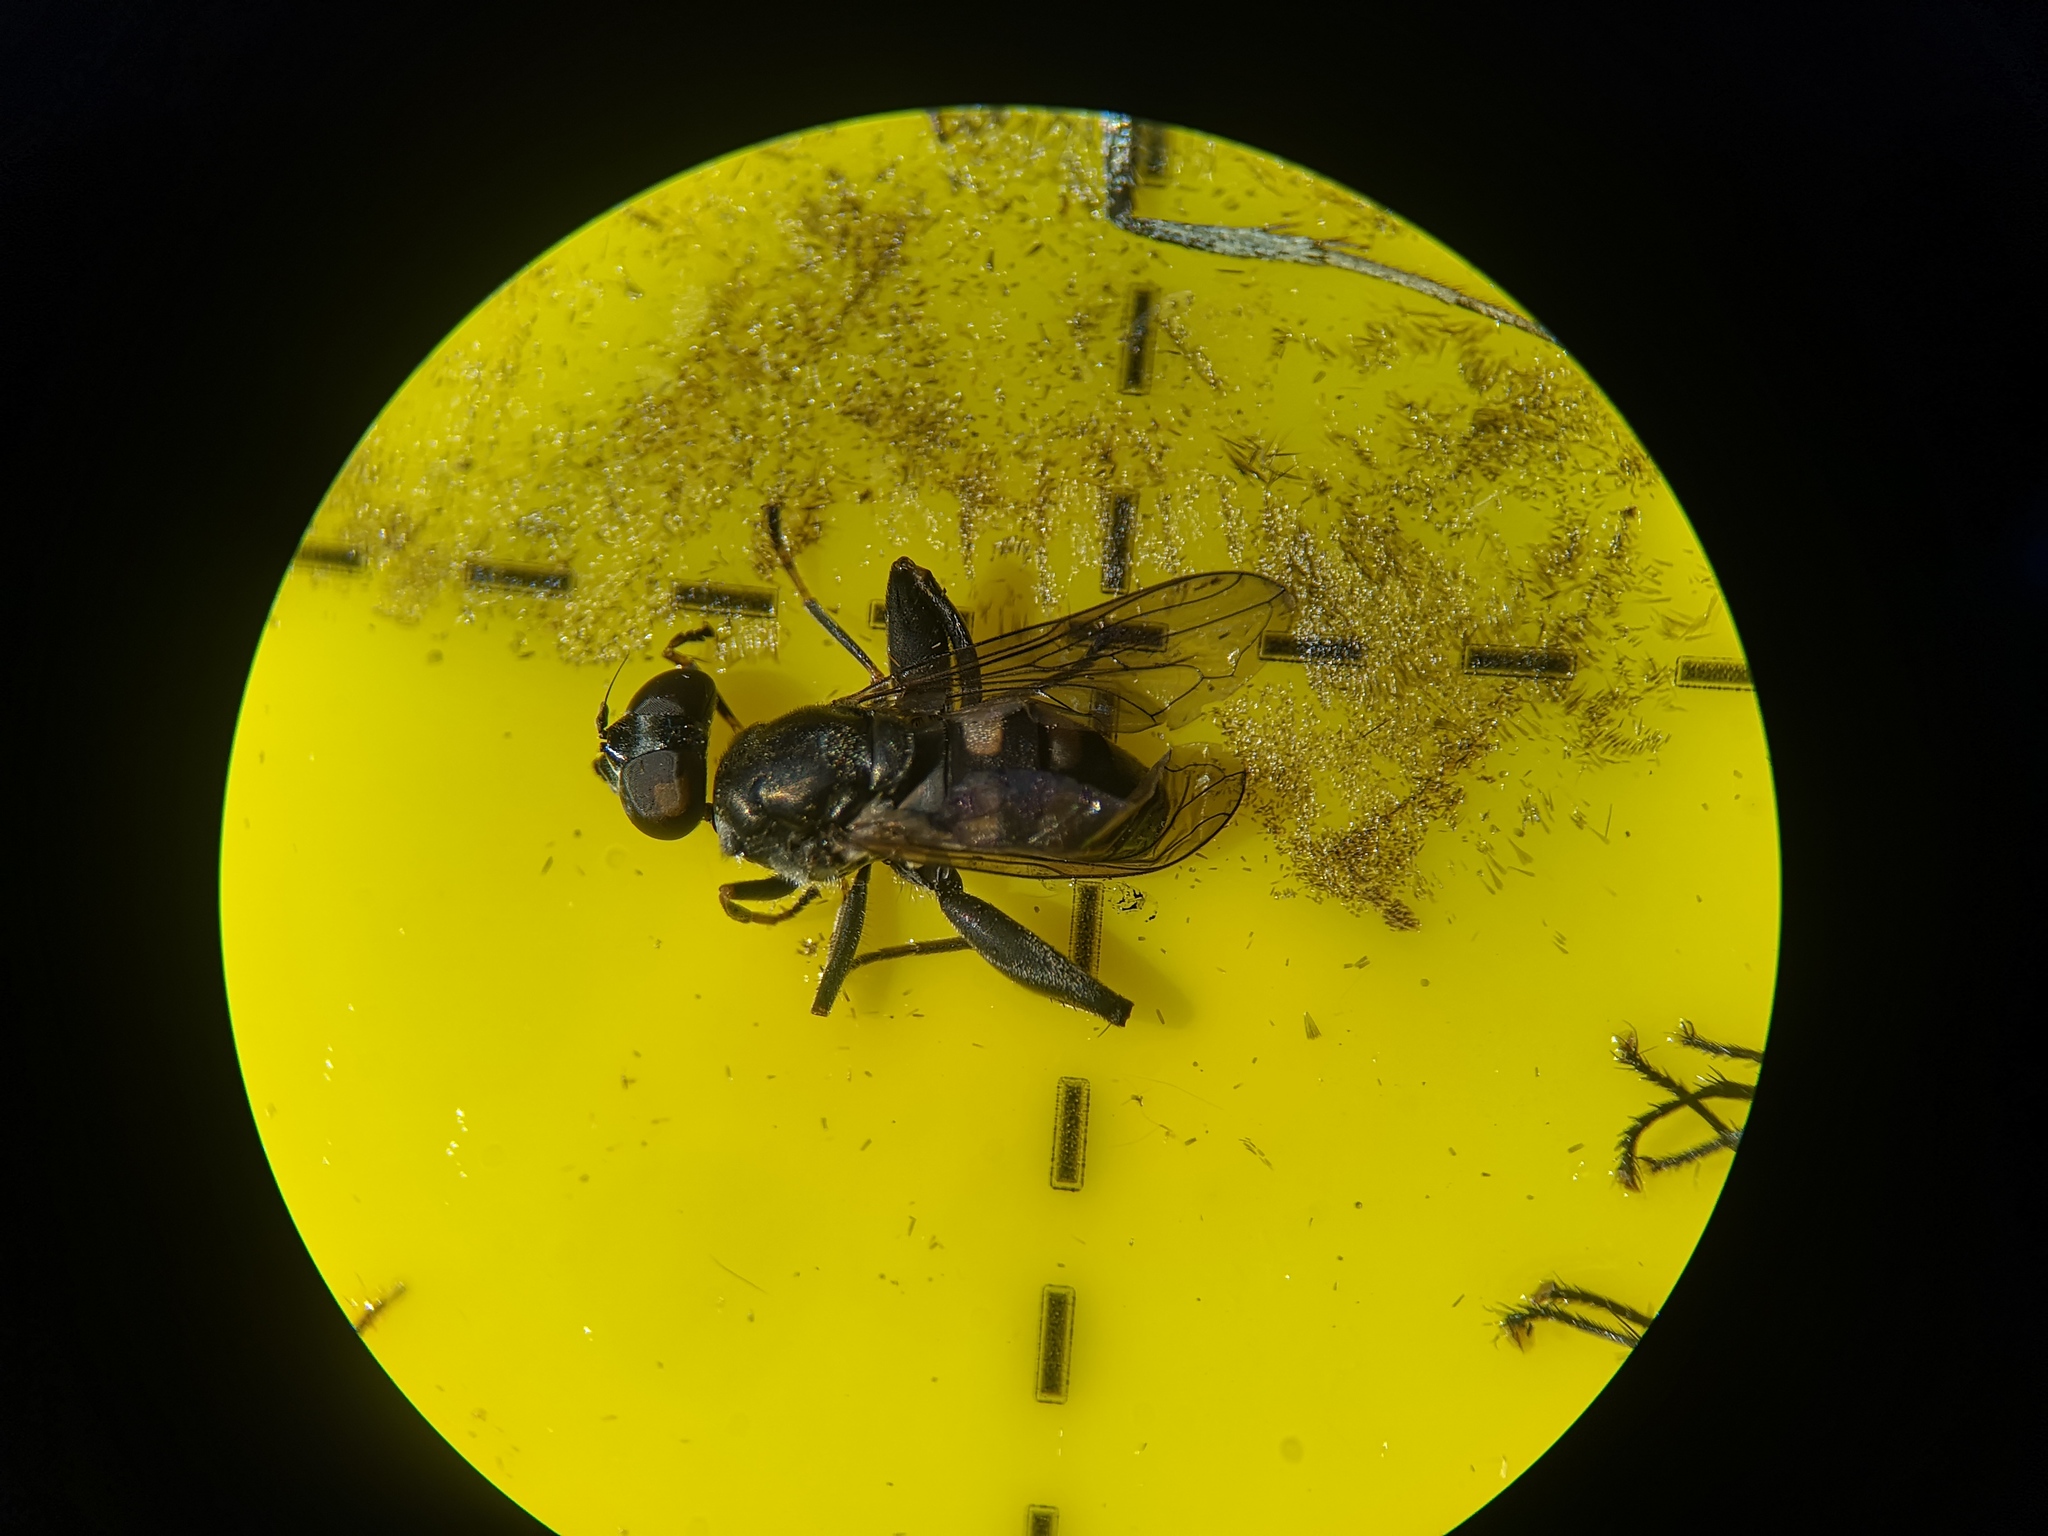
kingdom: Animalia
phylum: Arthropoda
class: Insecta
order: Diptera
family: Syrphidae
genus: Chalcosyrphus
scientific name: Chalcosyrphus nemorum
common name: Dusky-banded forest fly
